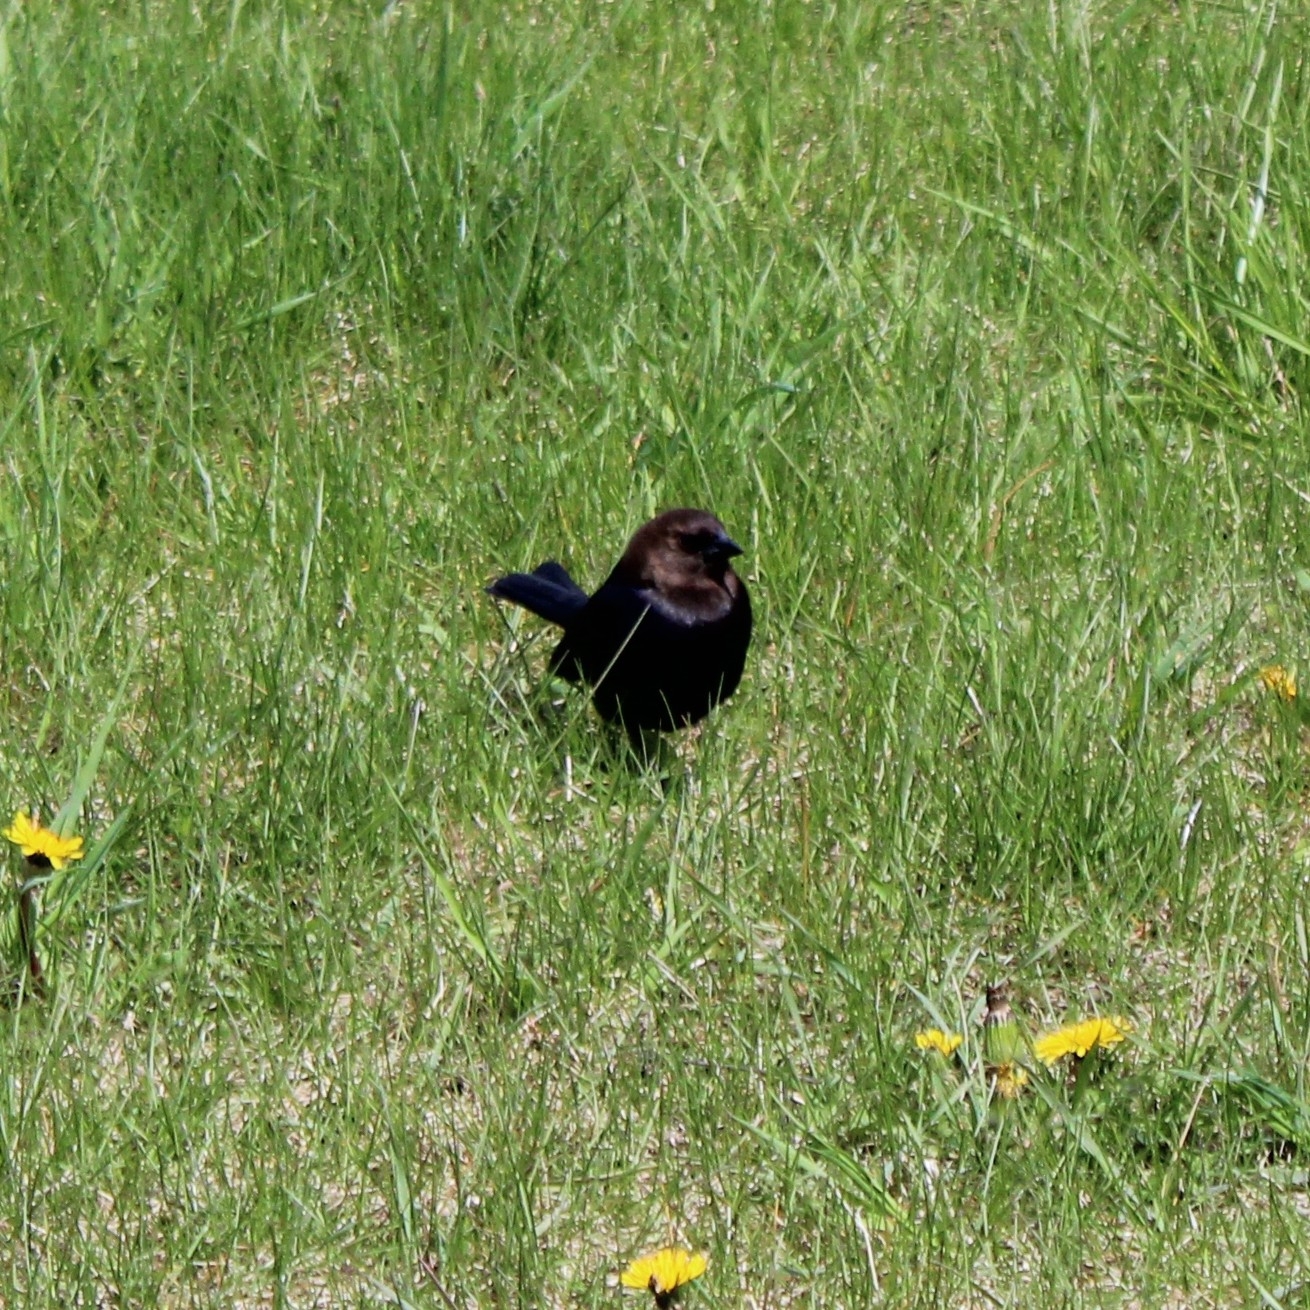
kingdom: Animalia
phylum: Chordata
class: Aves
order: Passeriformes
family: Icteridae
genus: Molothrus
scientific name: Molothrus ater
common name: Brown-headed cowbird
